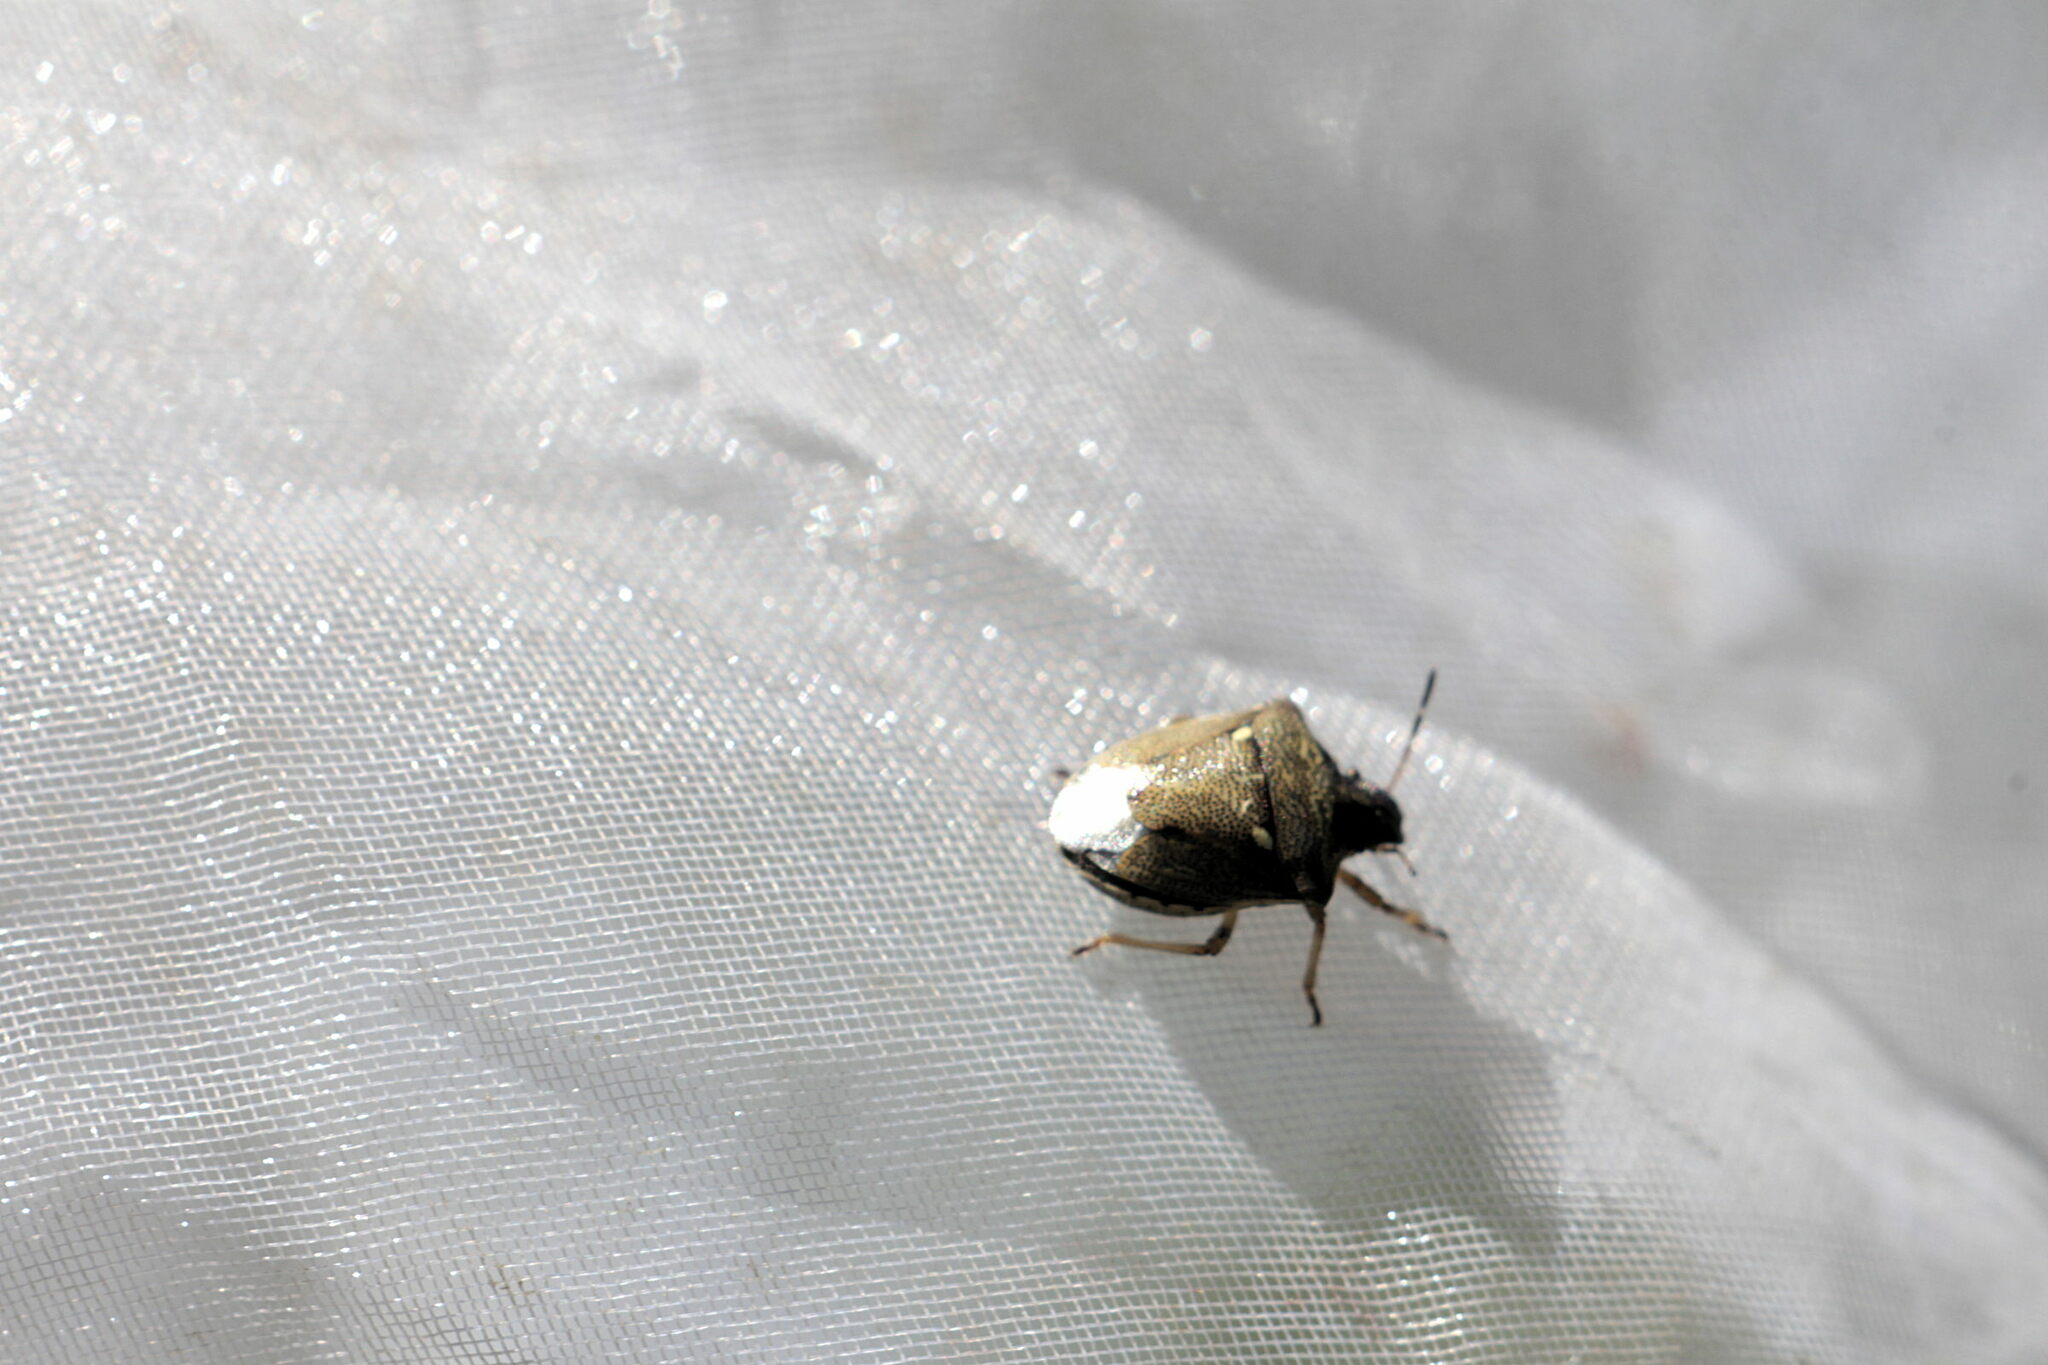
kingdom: Animalia
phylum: Arthropoda
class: Insecta
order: Hemiptera
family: Pentatomidae
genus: Eysarcoris
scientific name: Eysarcoris aeneus
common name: New forest shieldbug
